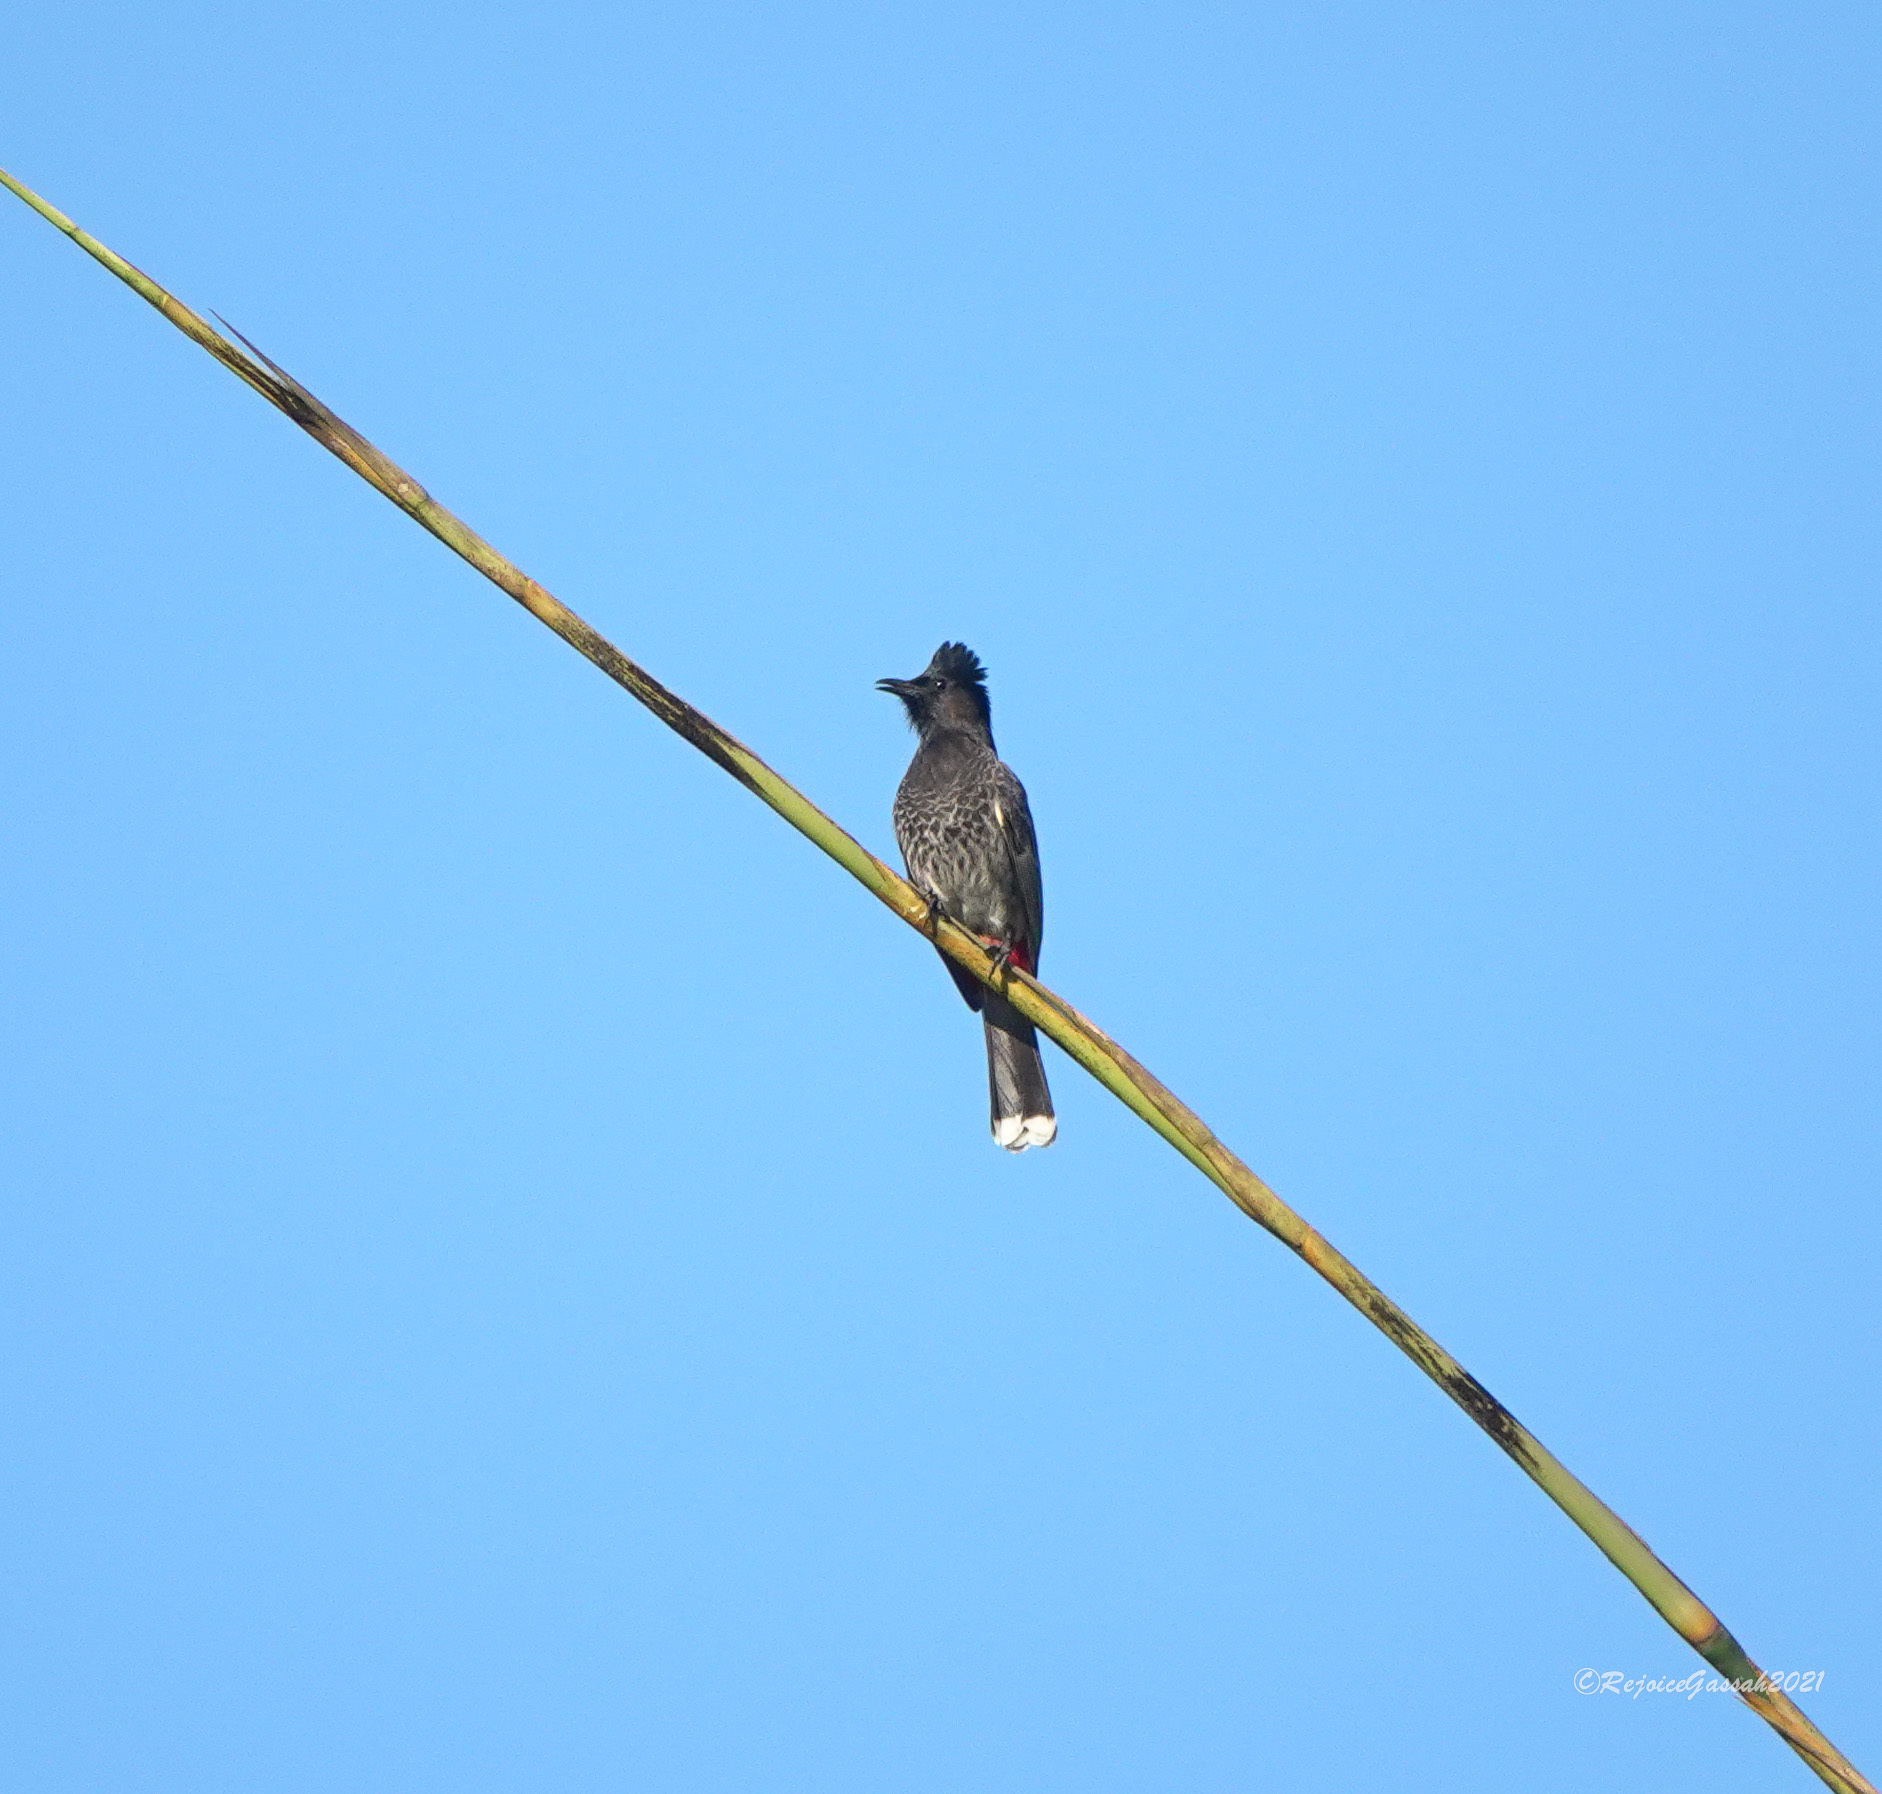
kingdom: Animalia
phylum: Chordata
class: Aves
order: Passeriformes
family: Pycnonotidae
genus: Pycnonotus
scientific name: Pycnonotus cafer
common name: Red-vented bulbul
